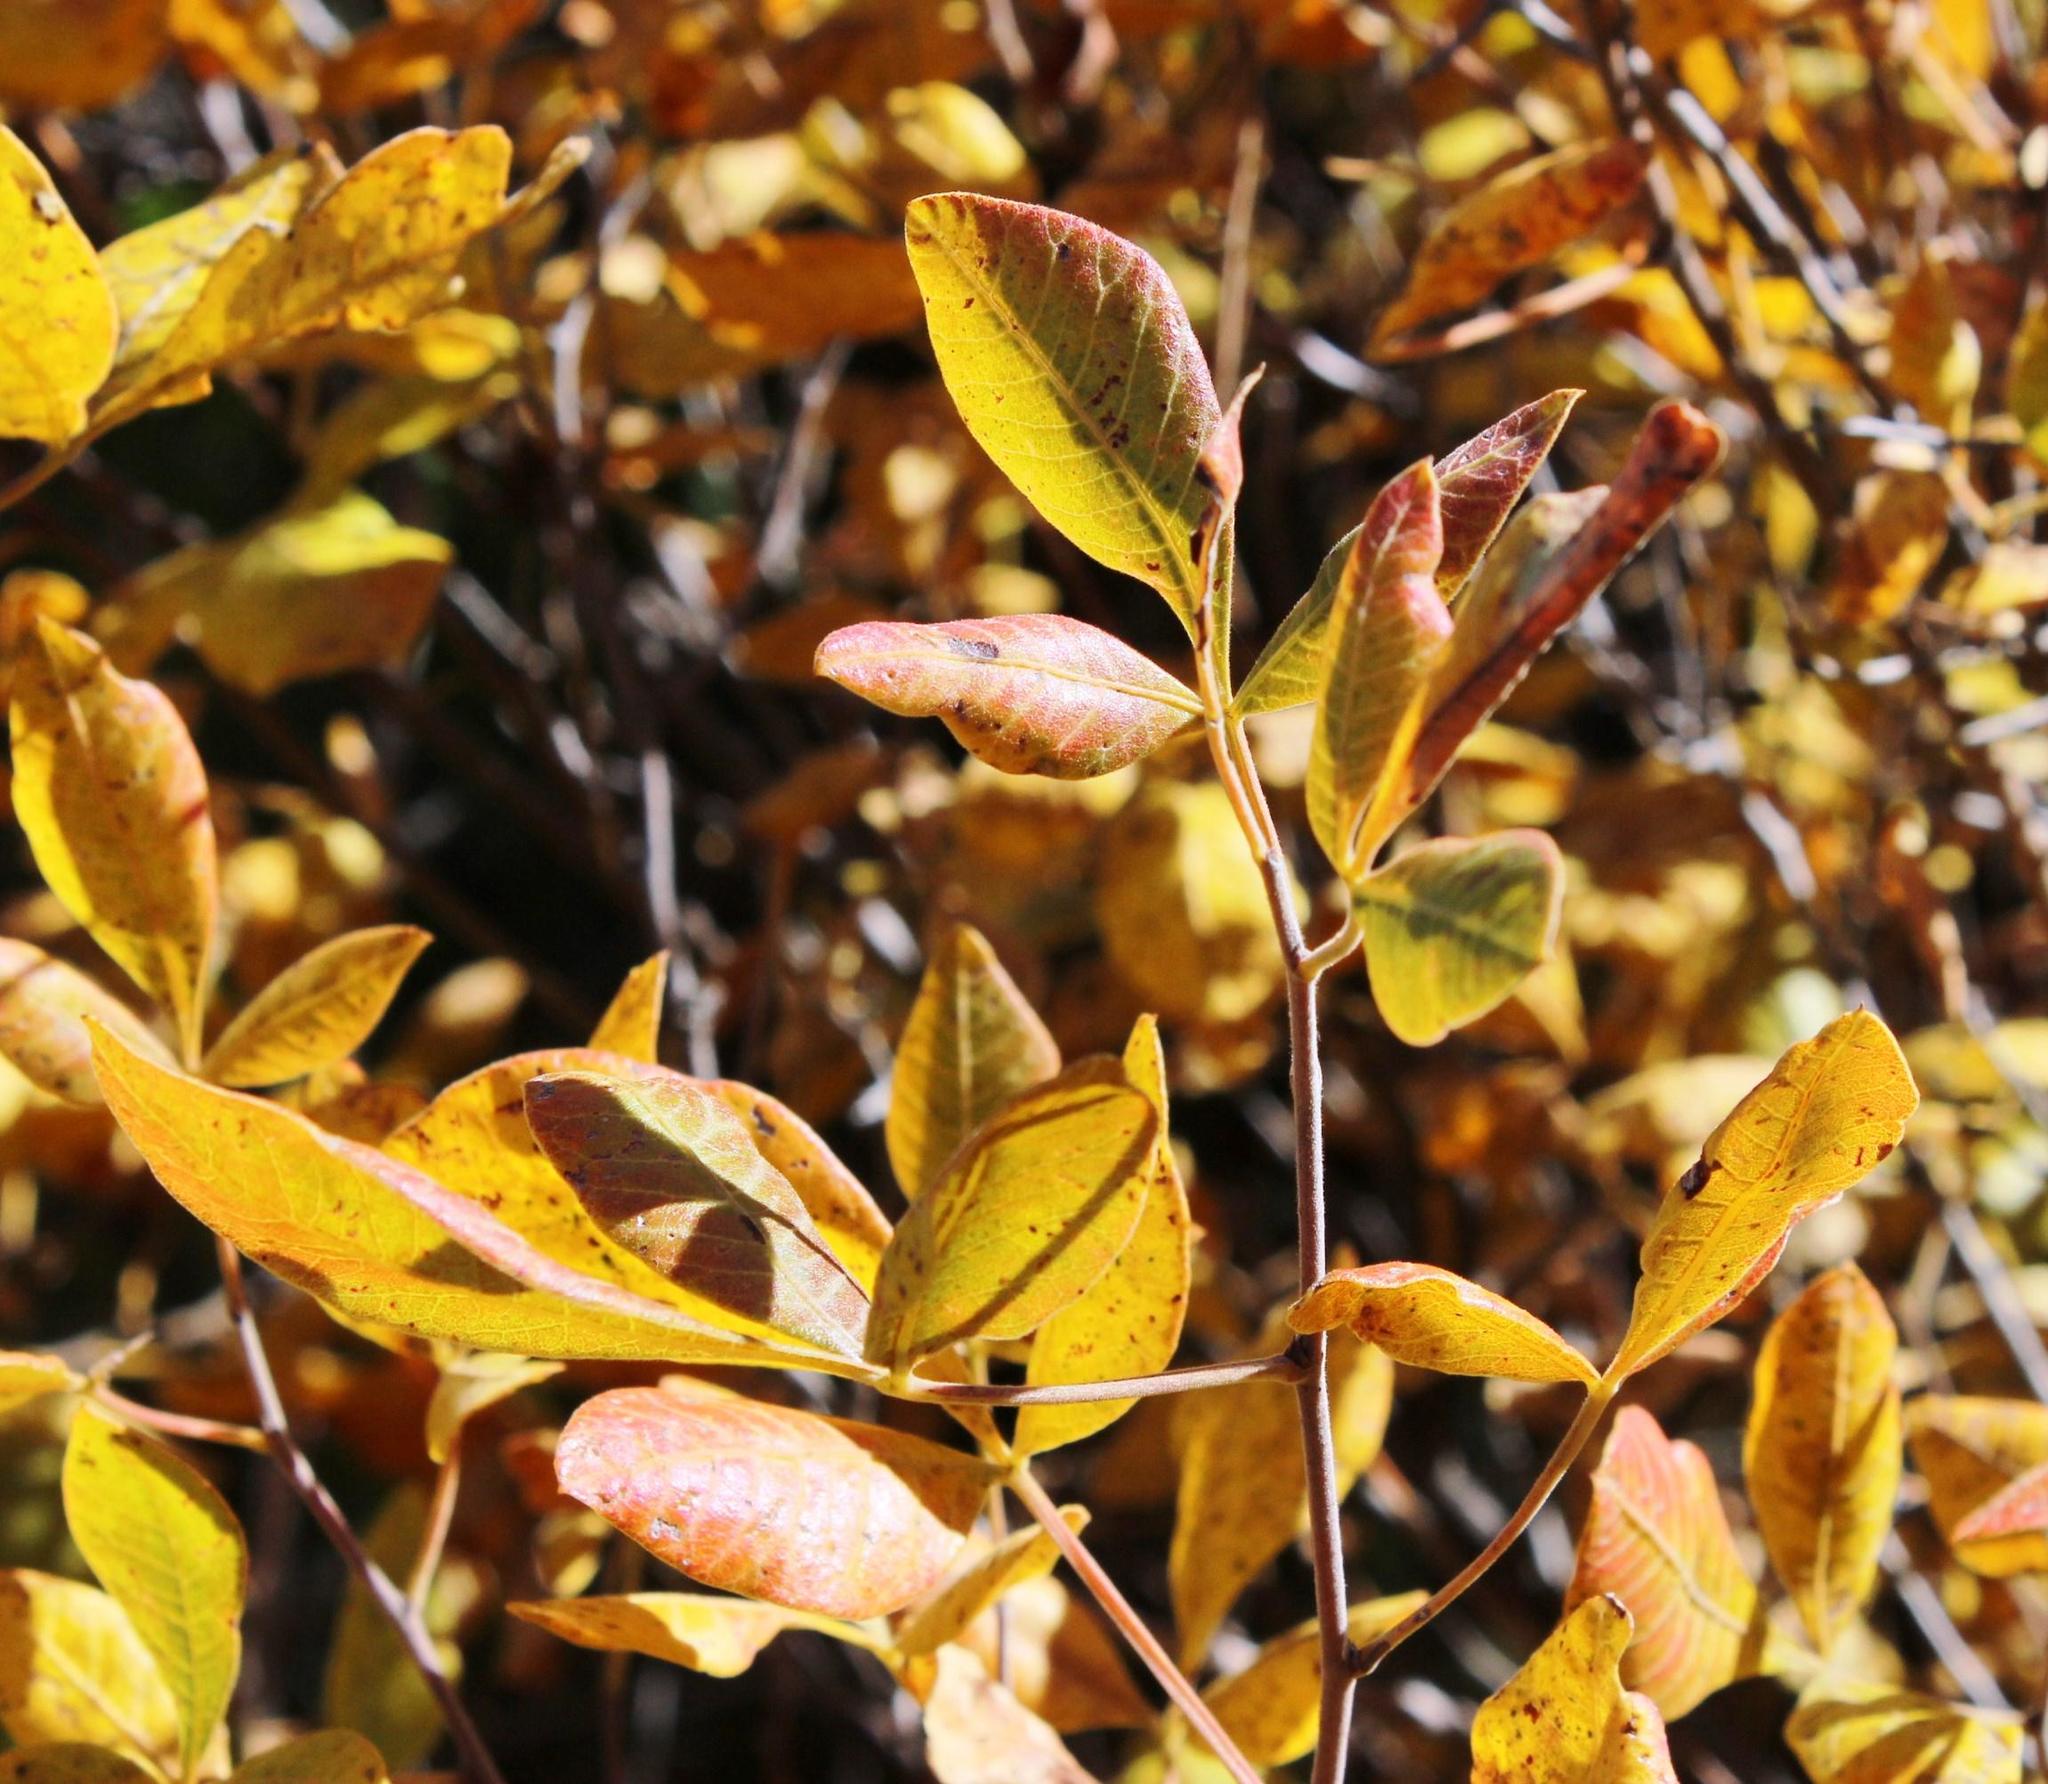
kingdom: Plantae
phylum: Tracheophyta
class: Magnoliopsida
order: Sapindales
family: Anacardiaceae
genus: Searsia
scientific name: Searsia pyroides
